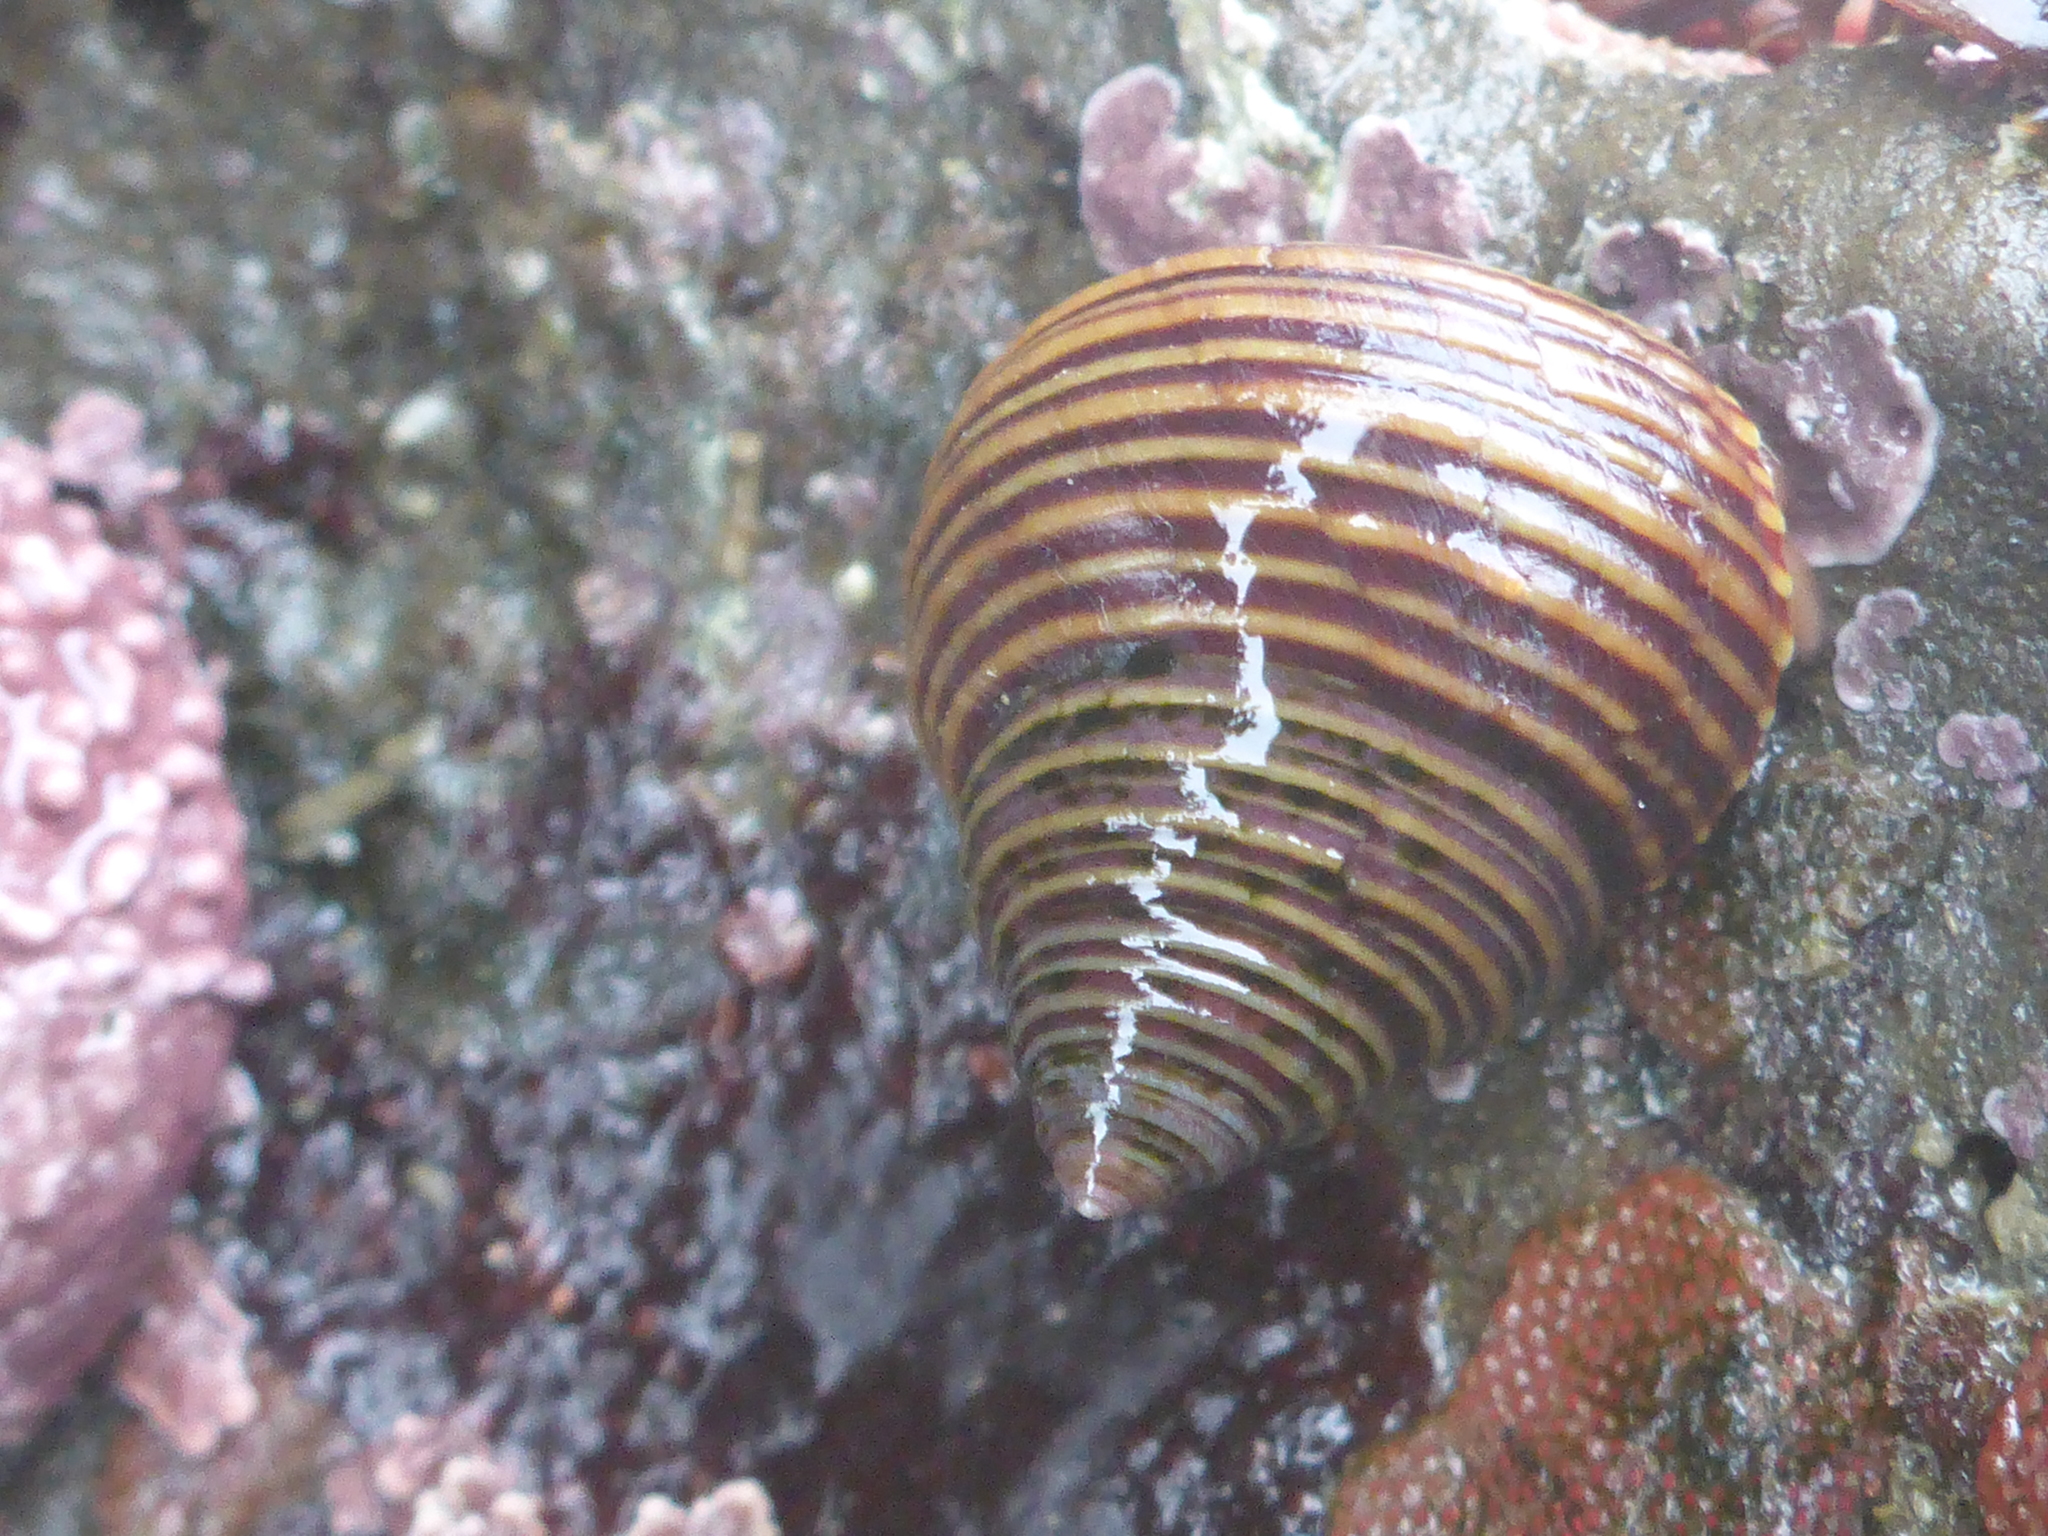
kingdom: Animalia
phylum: Mollusca
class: Gastropoda
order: Trochida
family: Calliostomatidae
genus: Calliostoma
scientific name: Calliostoma ligatum
